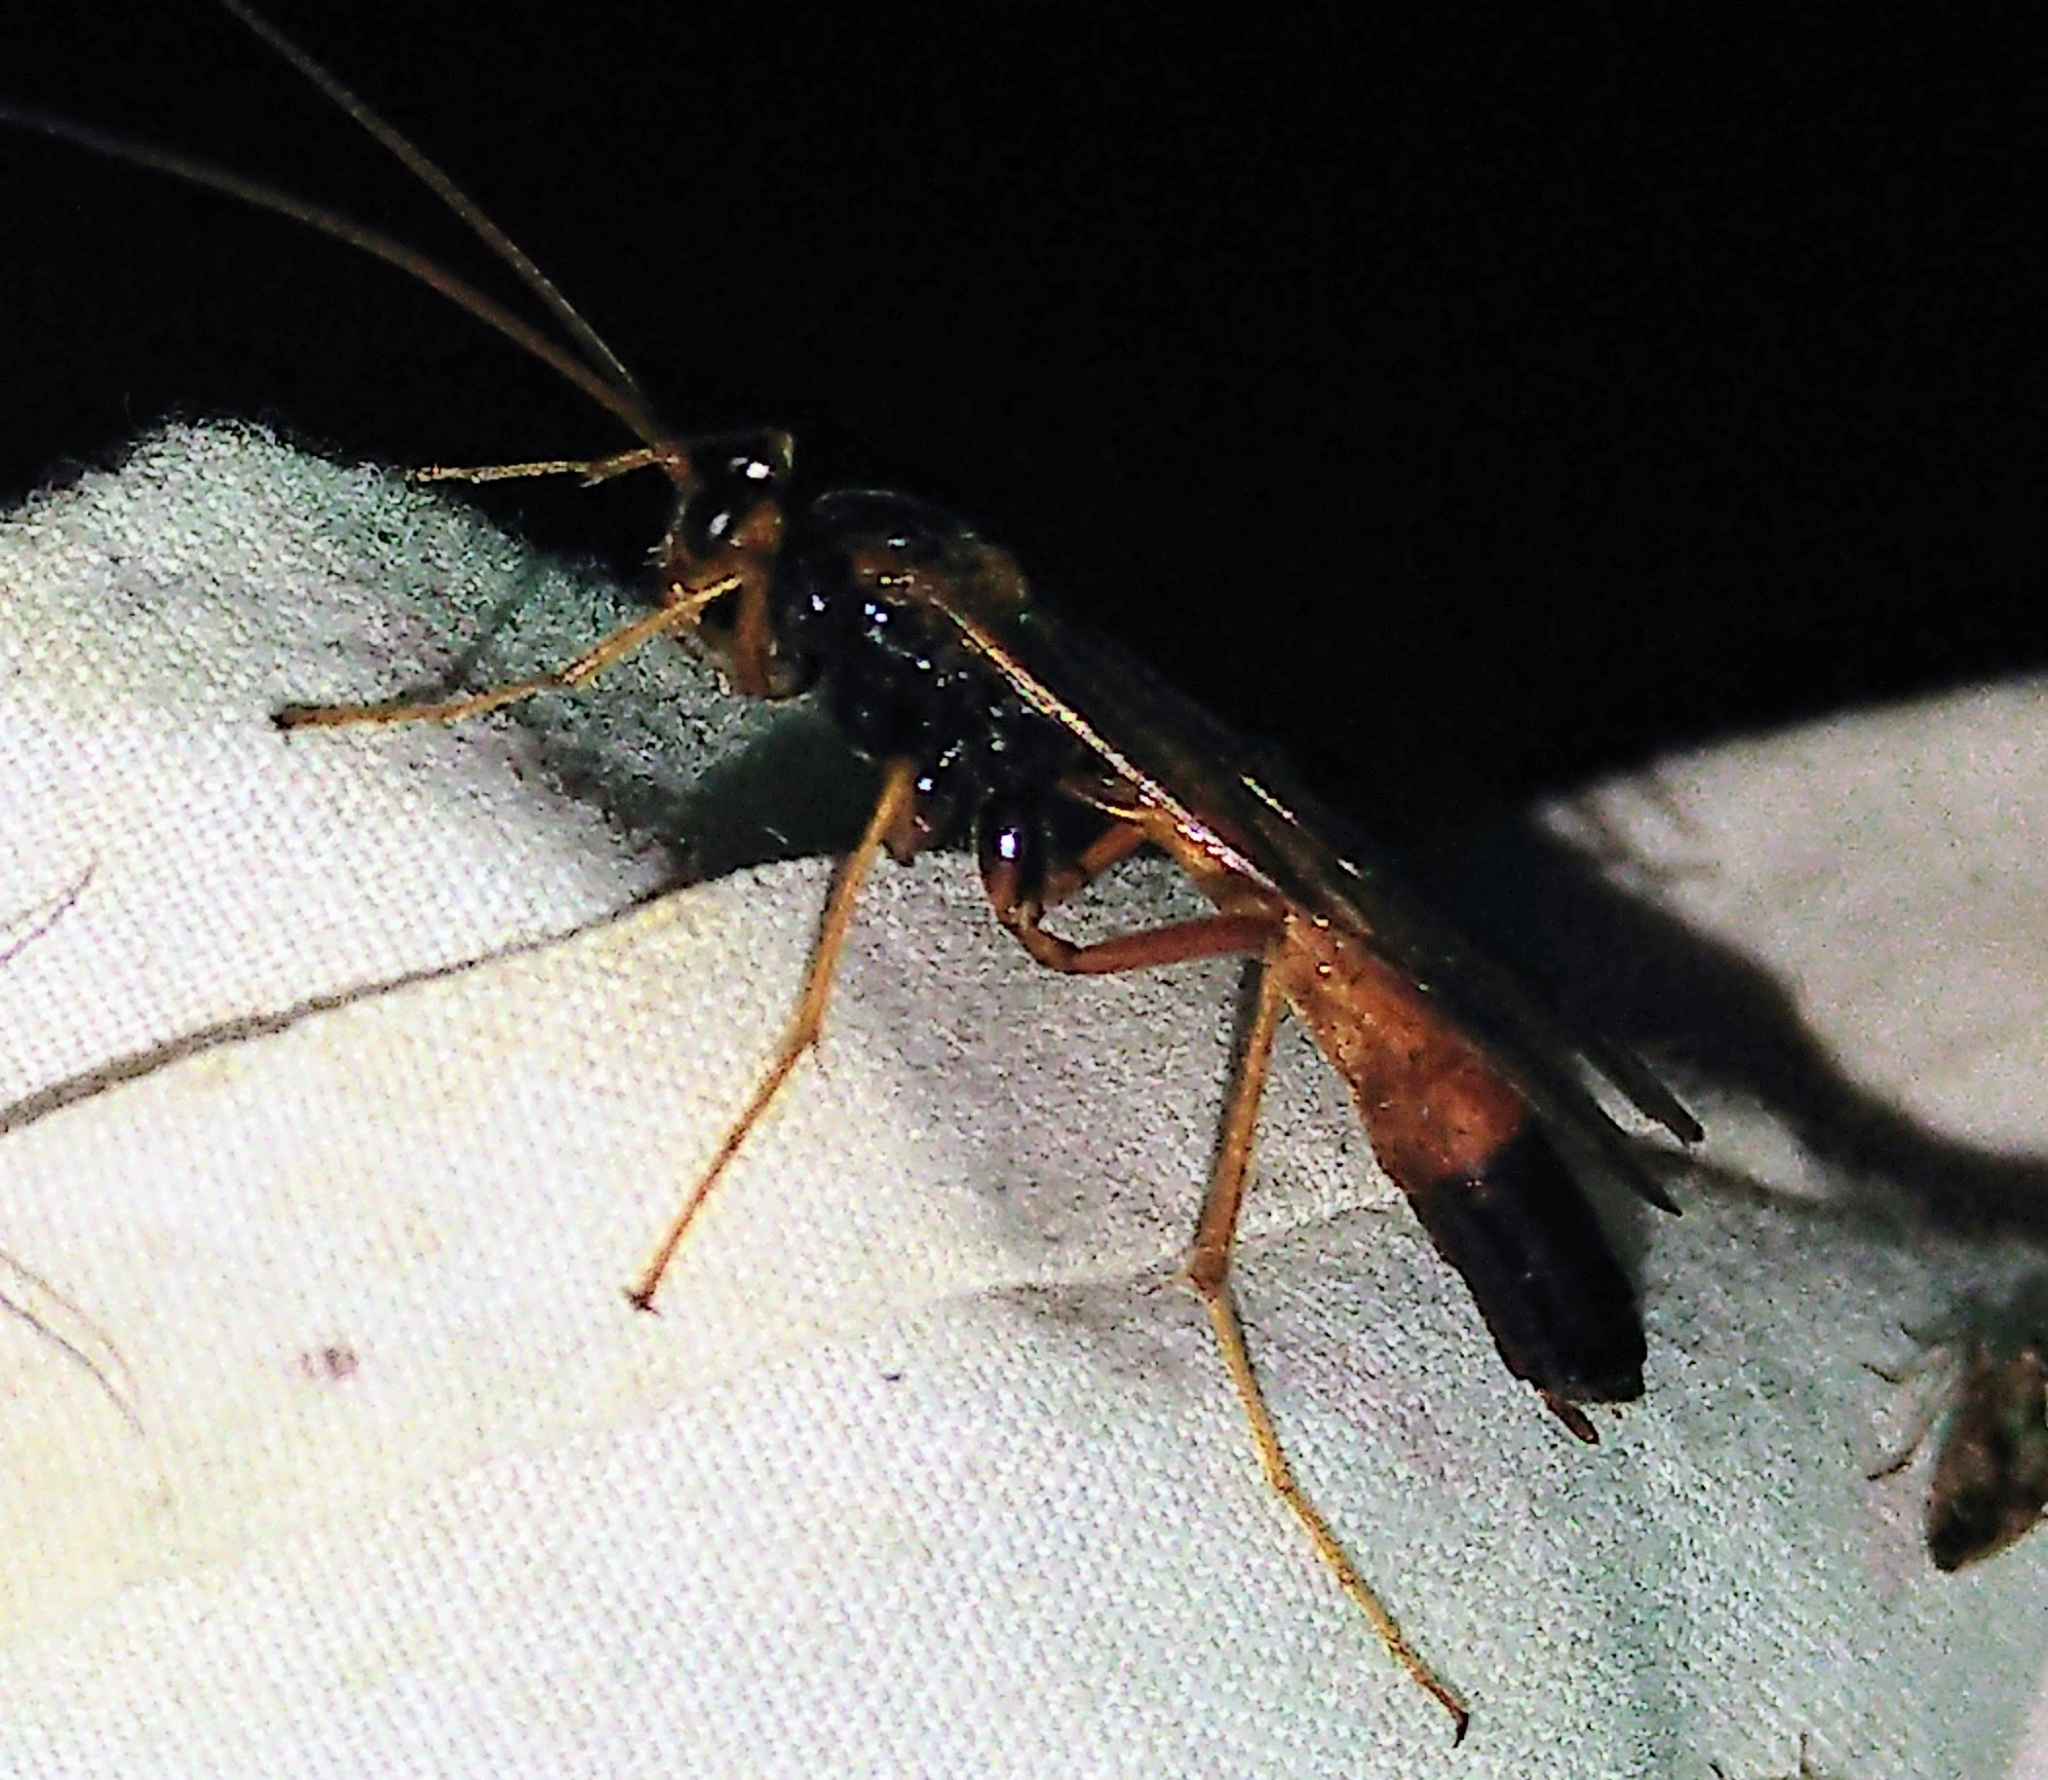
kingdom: Animalia
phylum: Arthropoda
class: Insecta
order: Hymenoptera
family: Ichneumonidae
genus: Opheltes
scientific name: Opheltes glaucopterus
